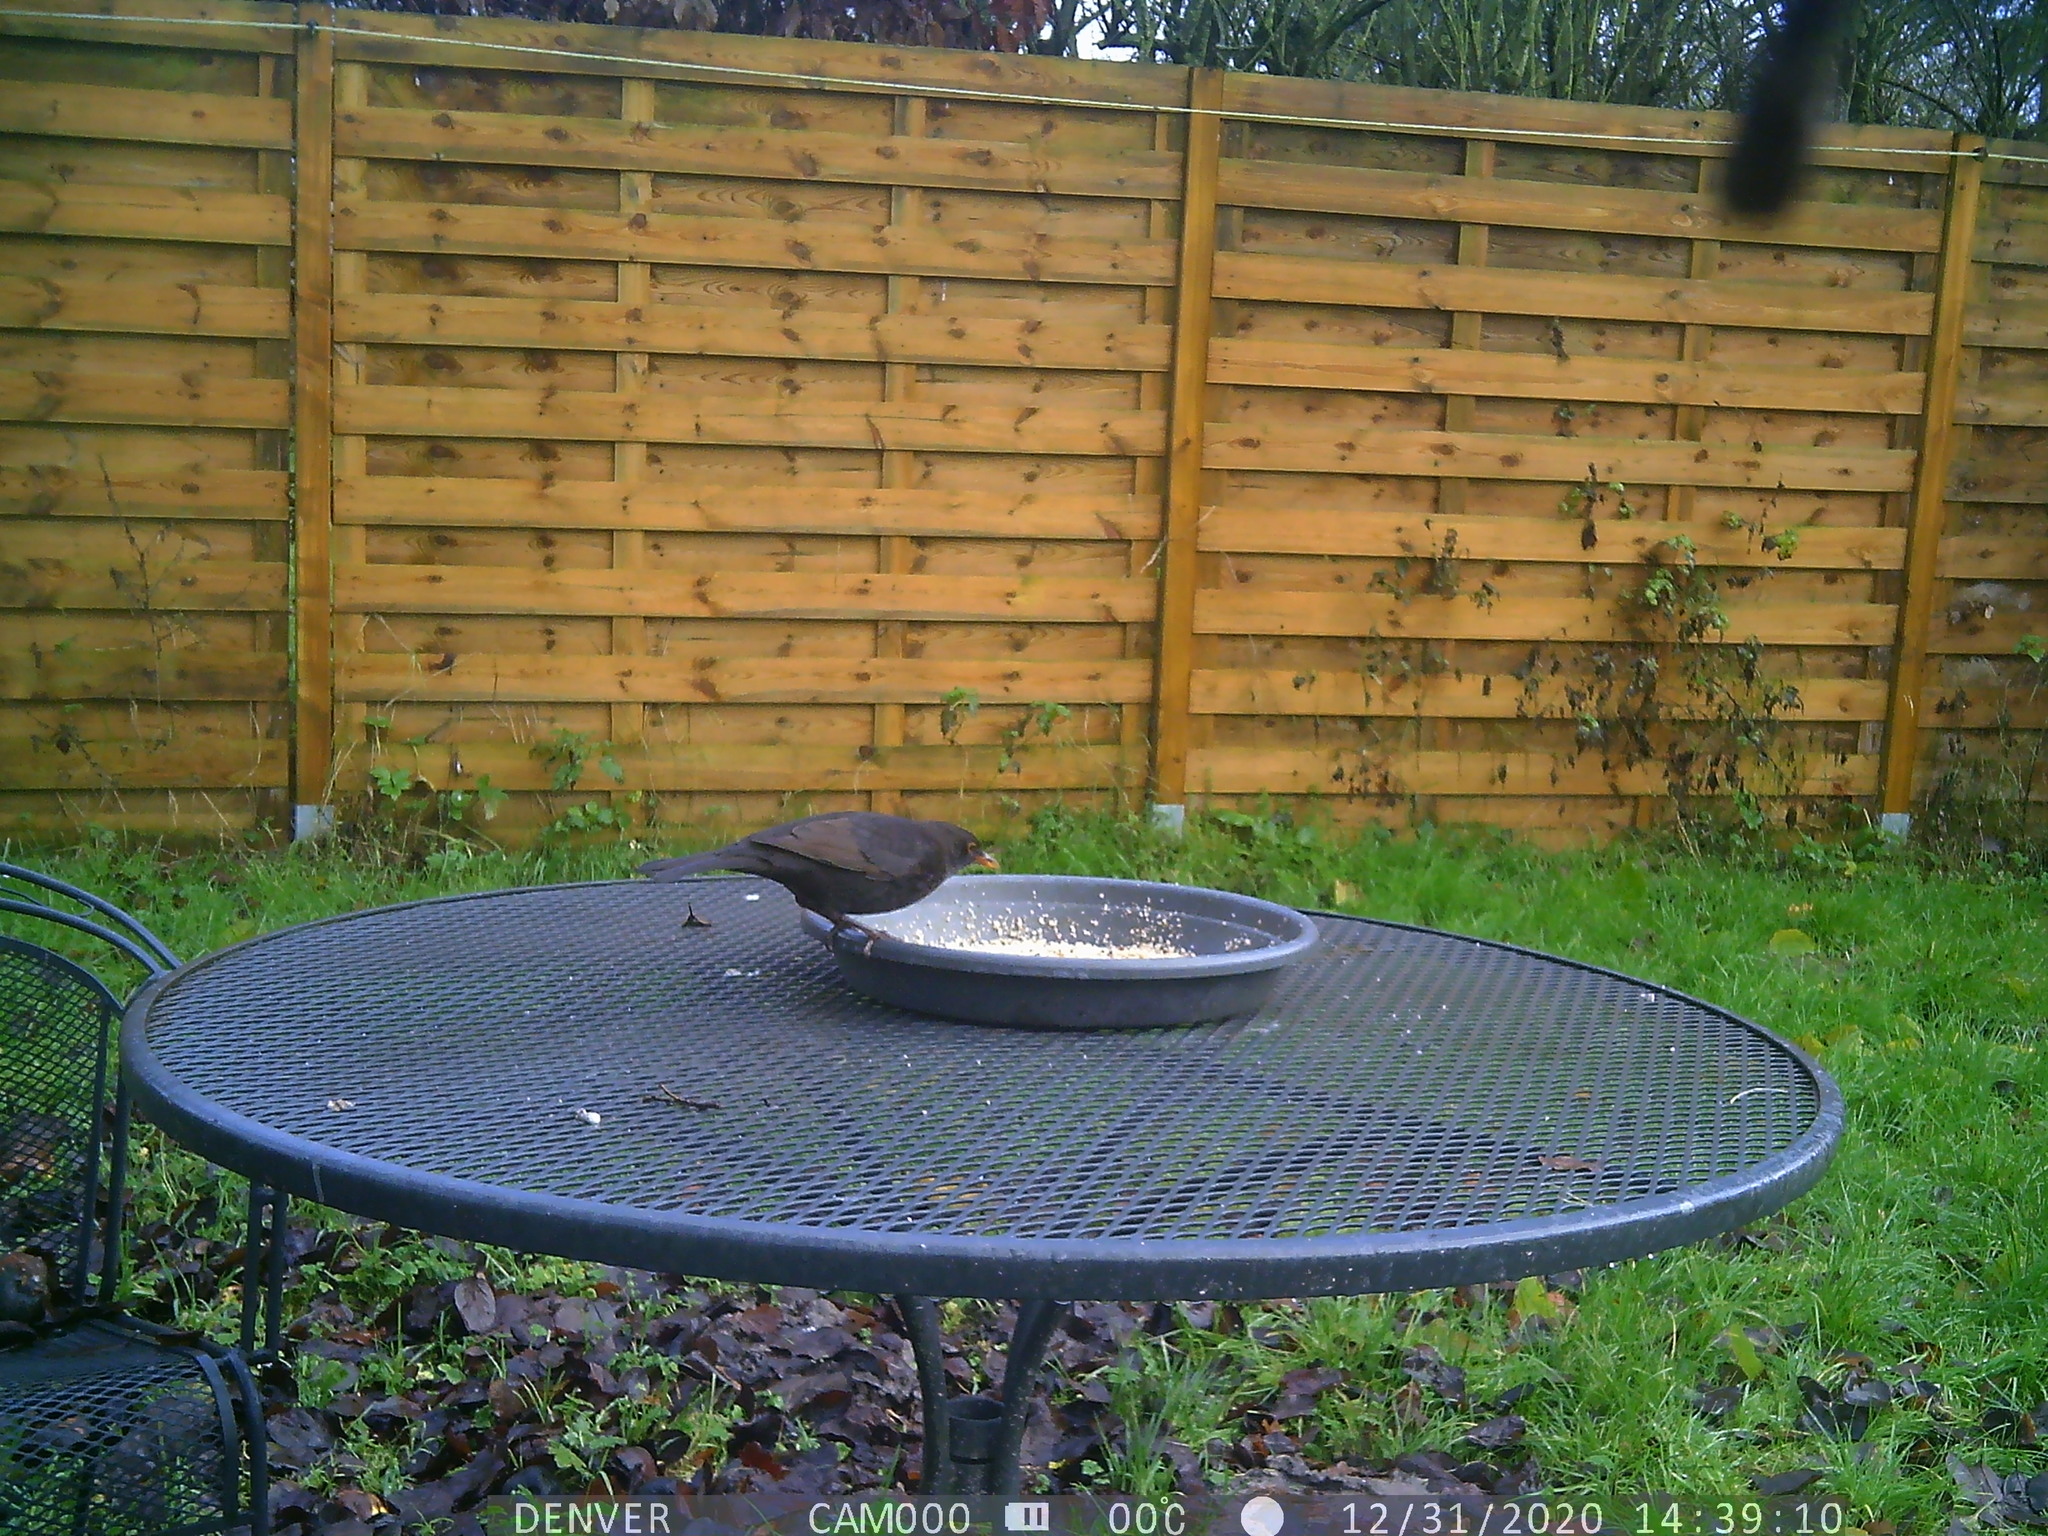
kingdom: Animalia
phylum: Chordata
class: Aves
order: Passeriformes
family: Turdidae
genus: Turdus
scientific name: Turdus merula
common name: Common blackbird
